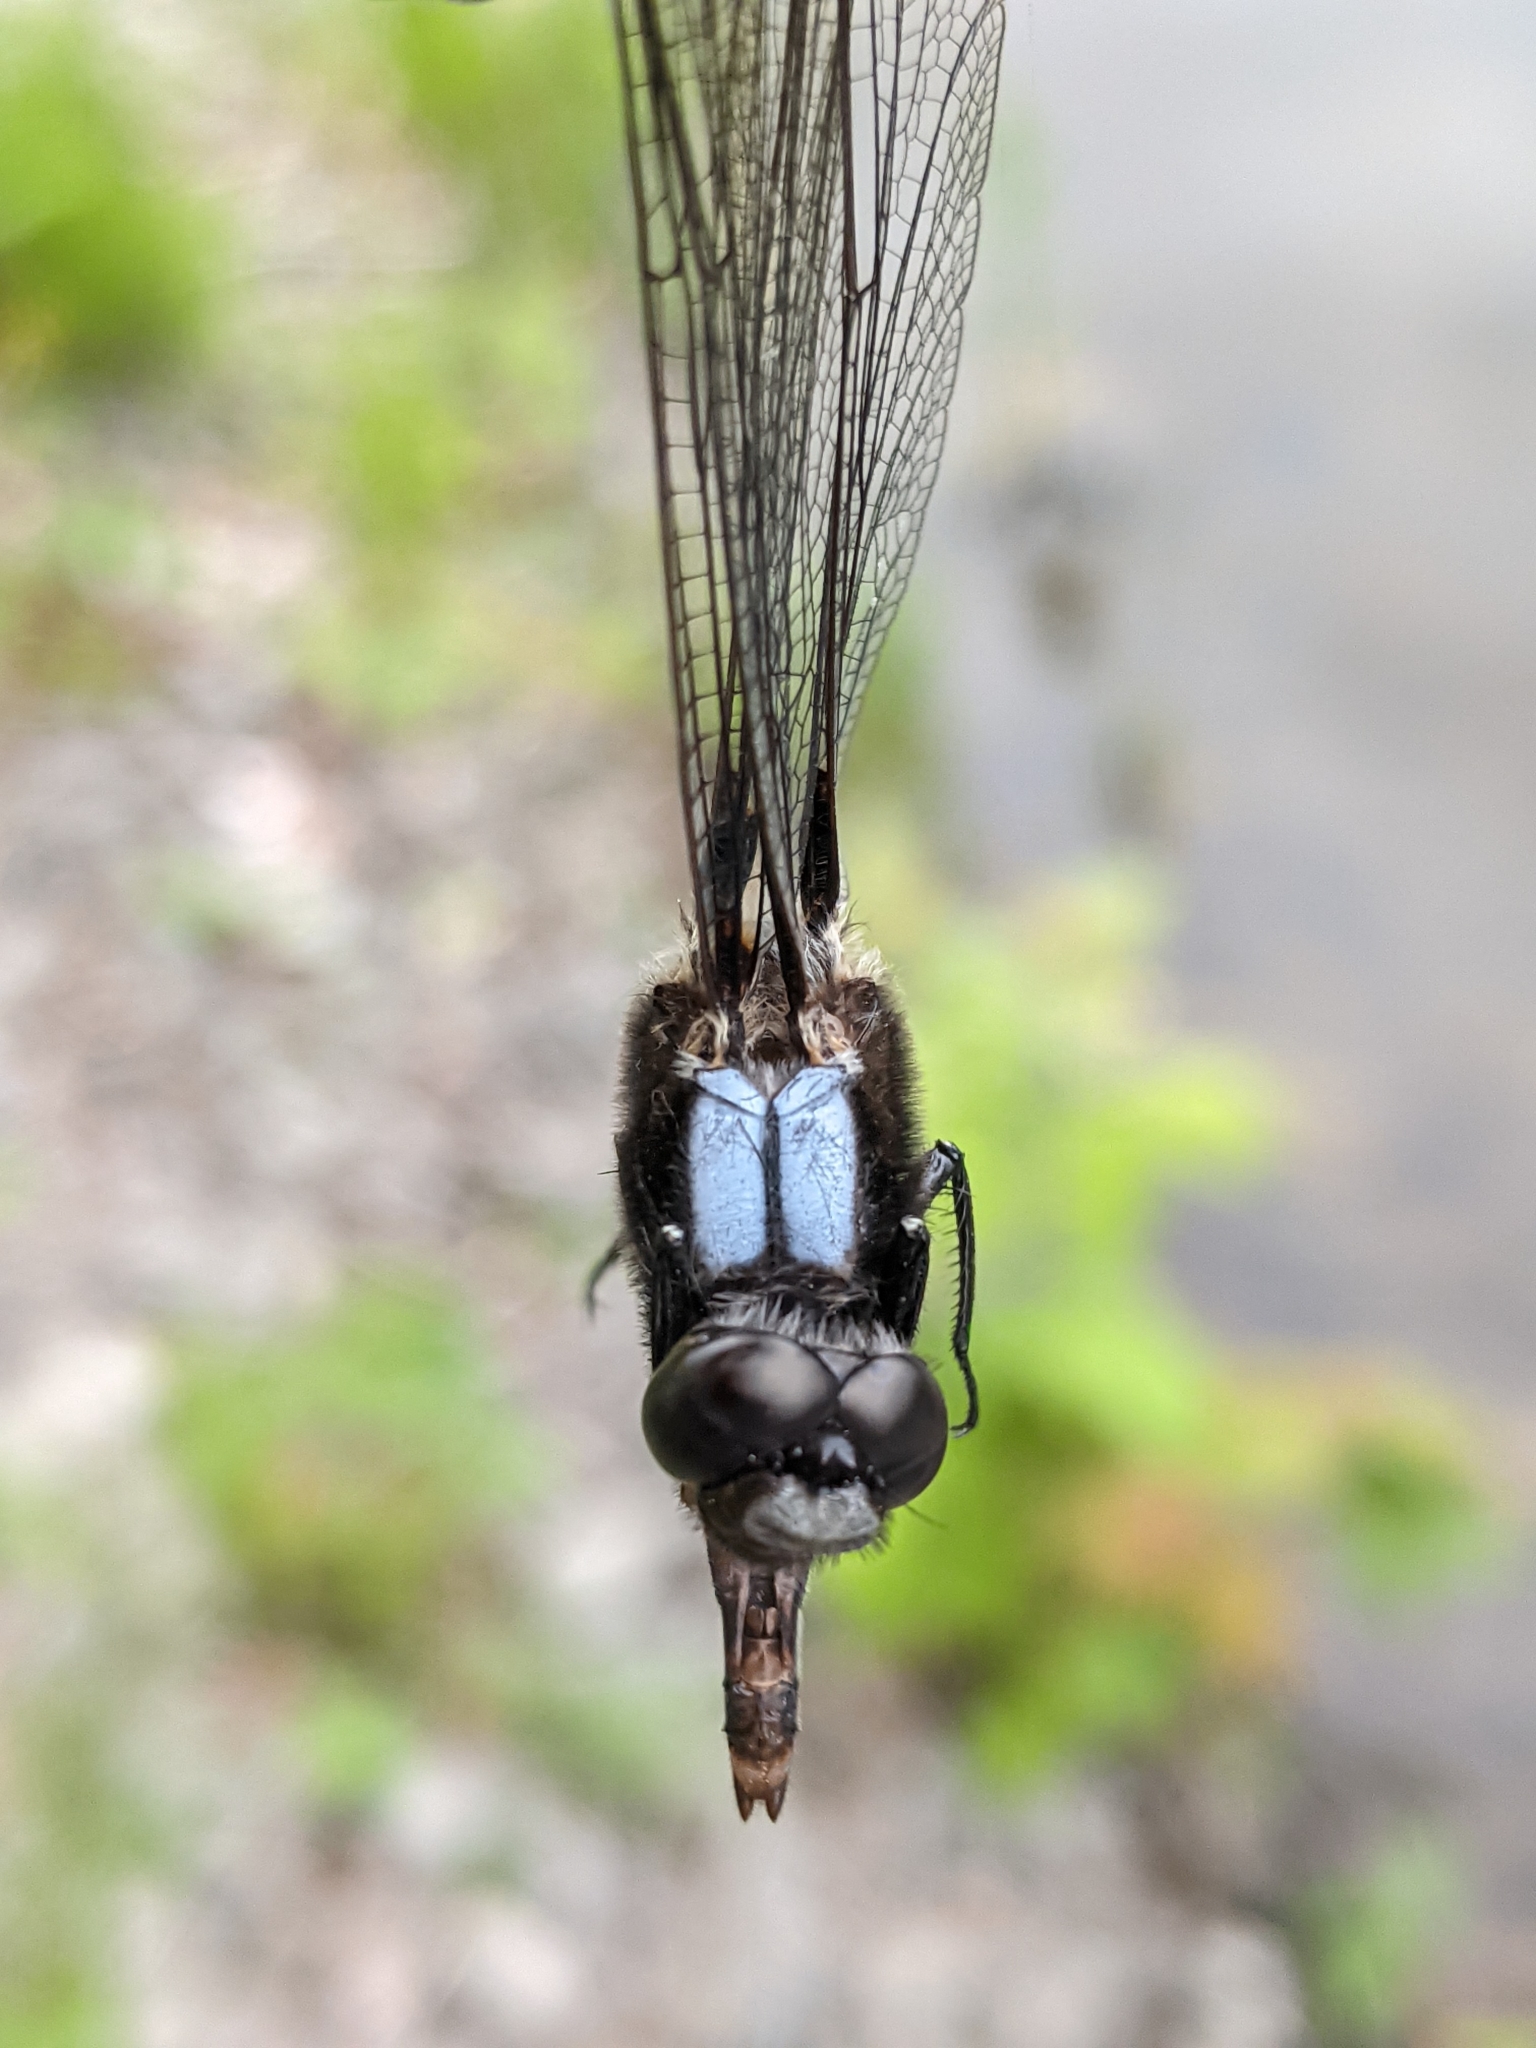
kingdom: Animalia
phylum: Arthropoda
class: Insecta
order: Odonata
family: Libellulidae
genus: Ladona
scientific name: Ladona julia
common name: Chalk-fronted corporal
